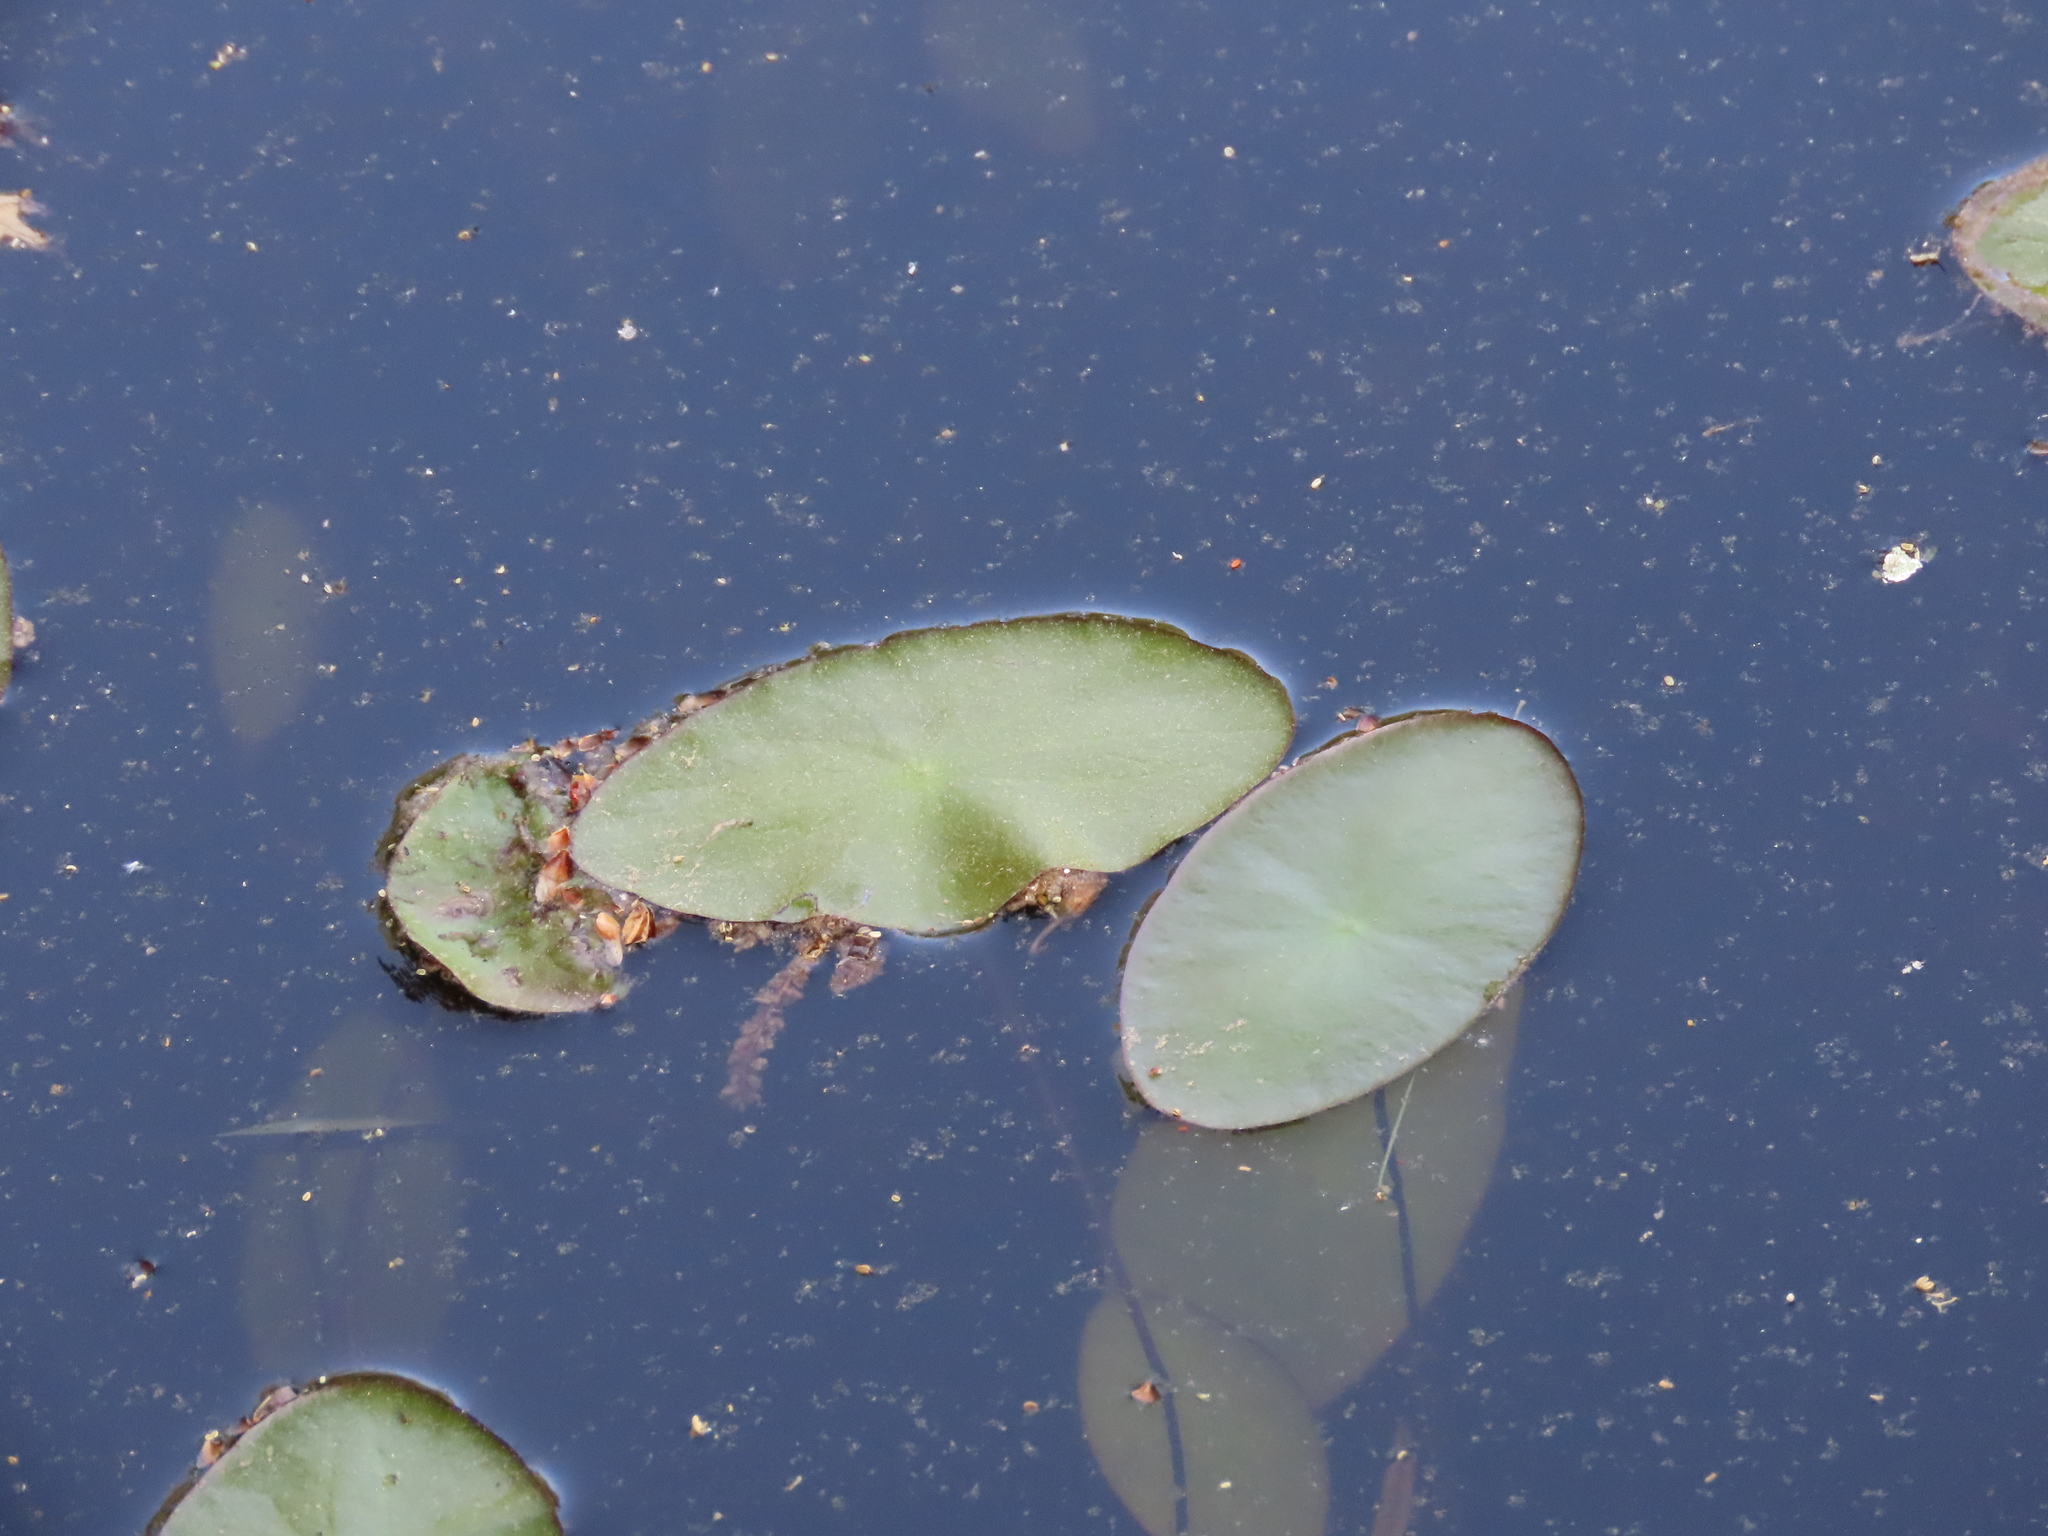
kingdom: Plantae
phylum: Tracheophyta
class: Magnoliopsida
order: Nymphaeales
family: Cabombaceae
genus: Brasenia
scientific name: Brasenia schreberi
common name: Water-shield
